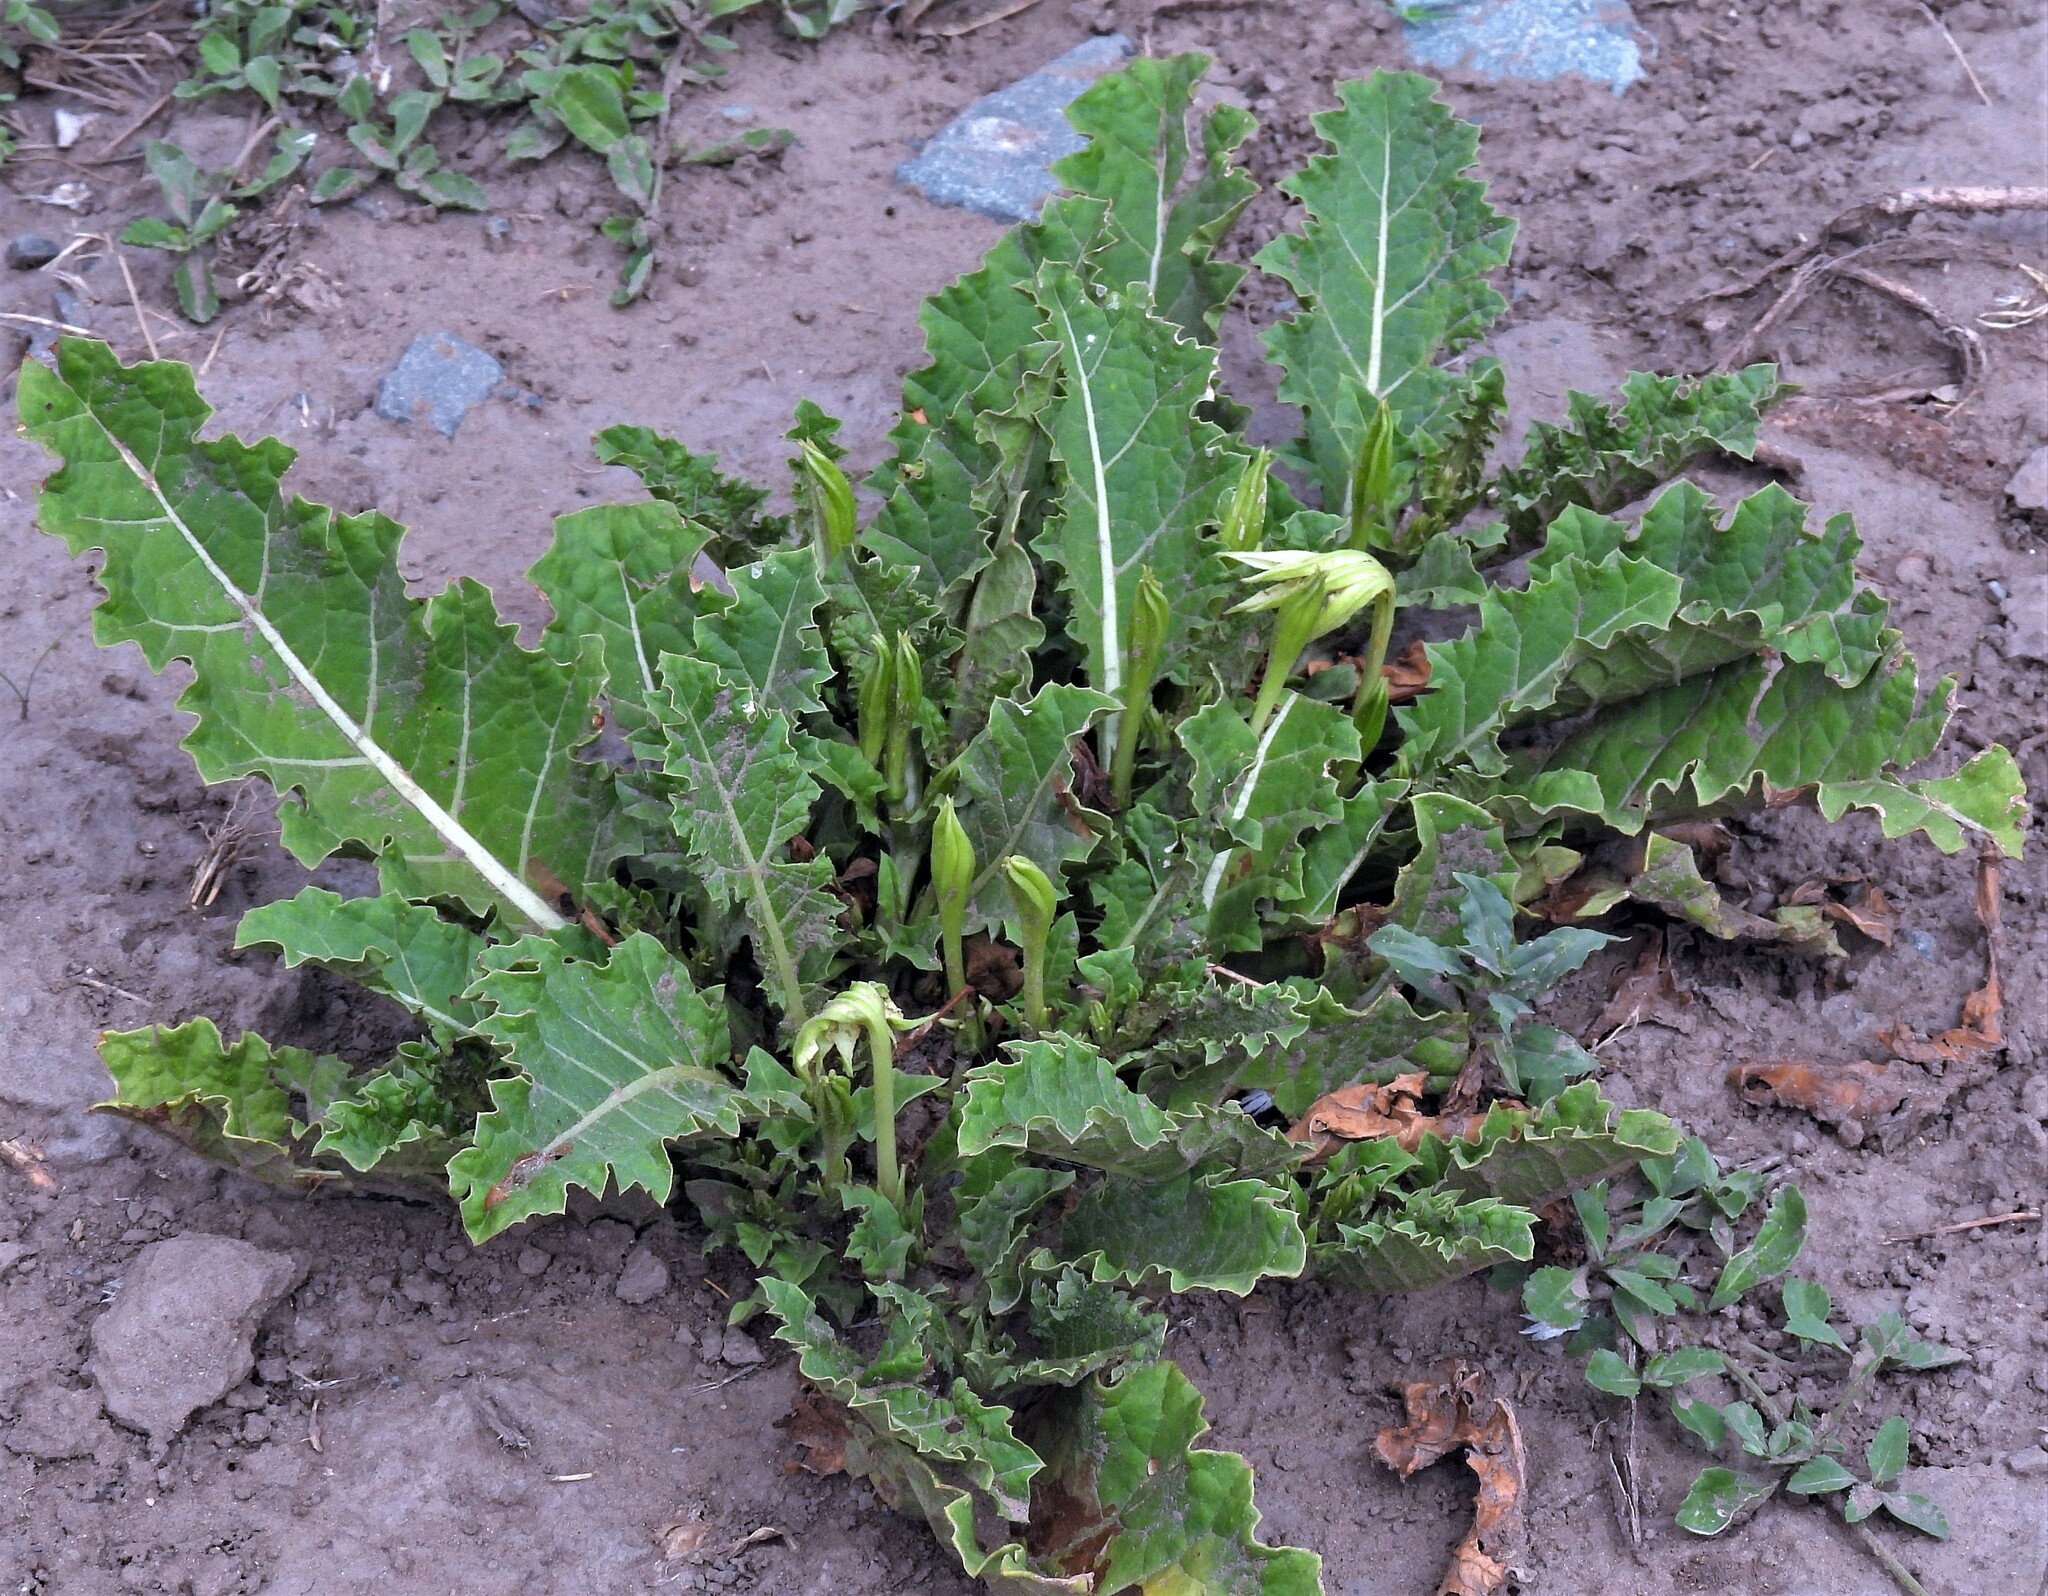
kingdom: Plantae
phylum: Tracheophyta
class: Magnoliopsida
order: Solanales
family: Solanaceae
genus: Jaborosa
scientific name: Jaborosa odonelliana
